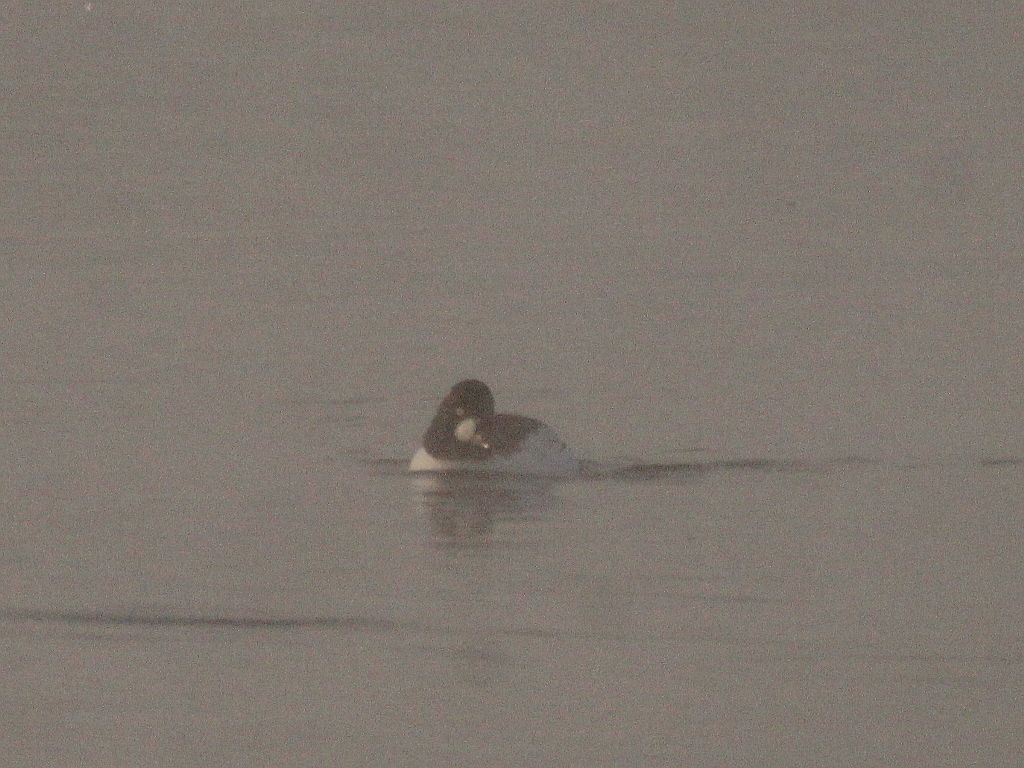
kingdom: Animalia
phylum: Chordata
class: Aves
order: Anseriformes
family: Anatidae
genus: Bucephala
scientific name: Bucephala clangula
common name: Common goldeneye
